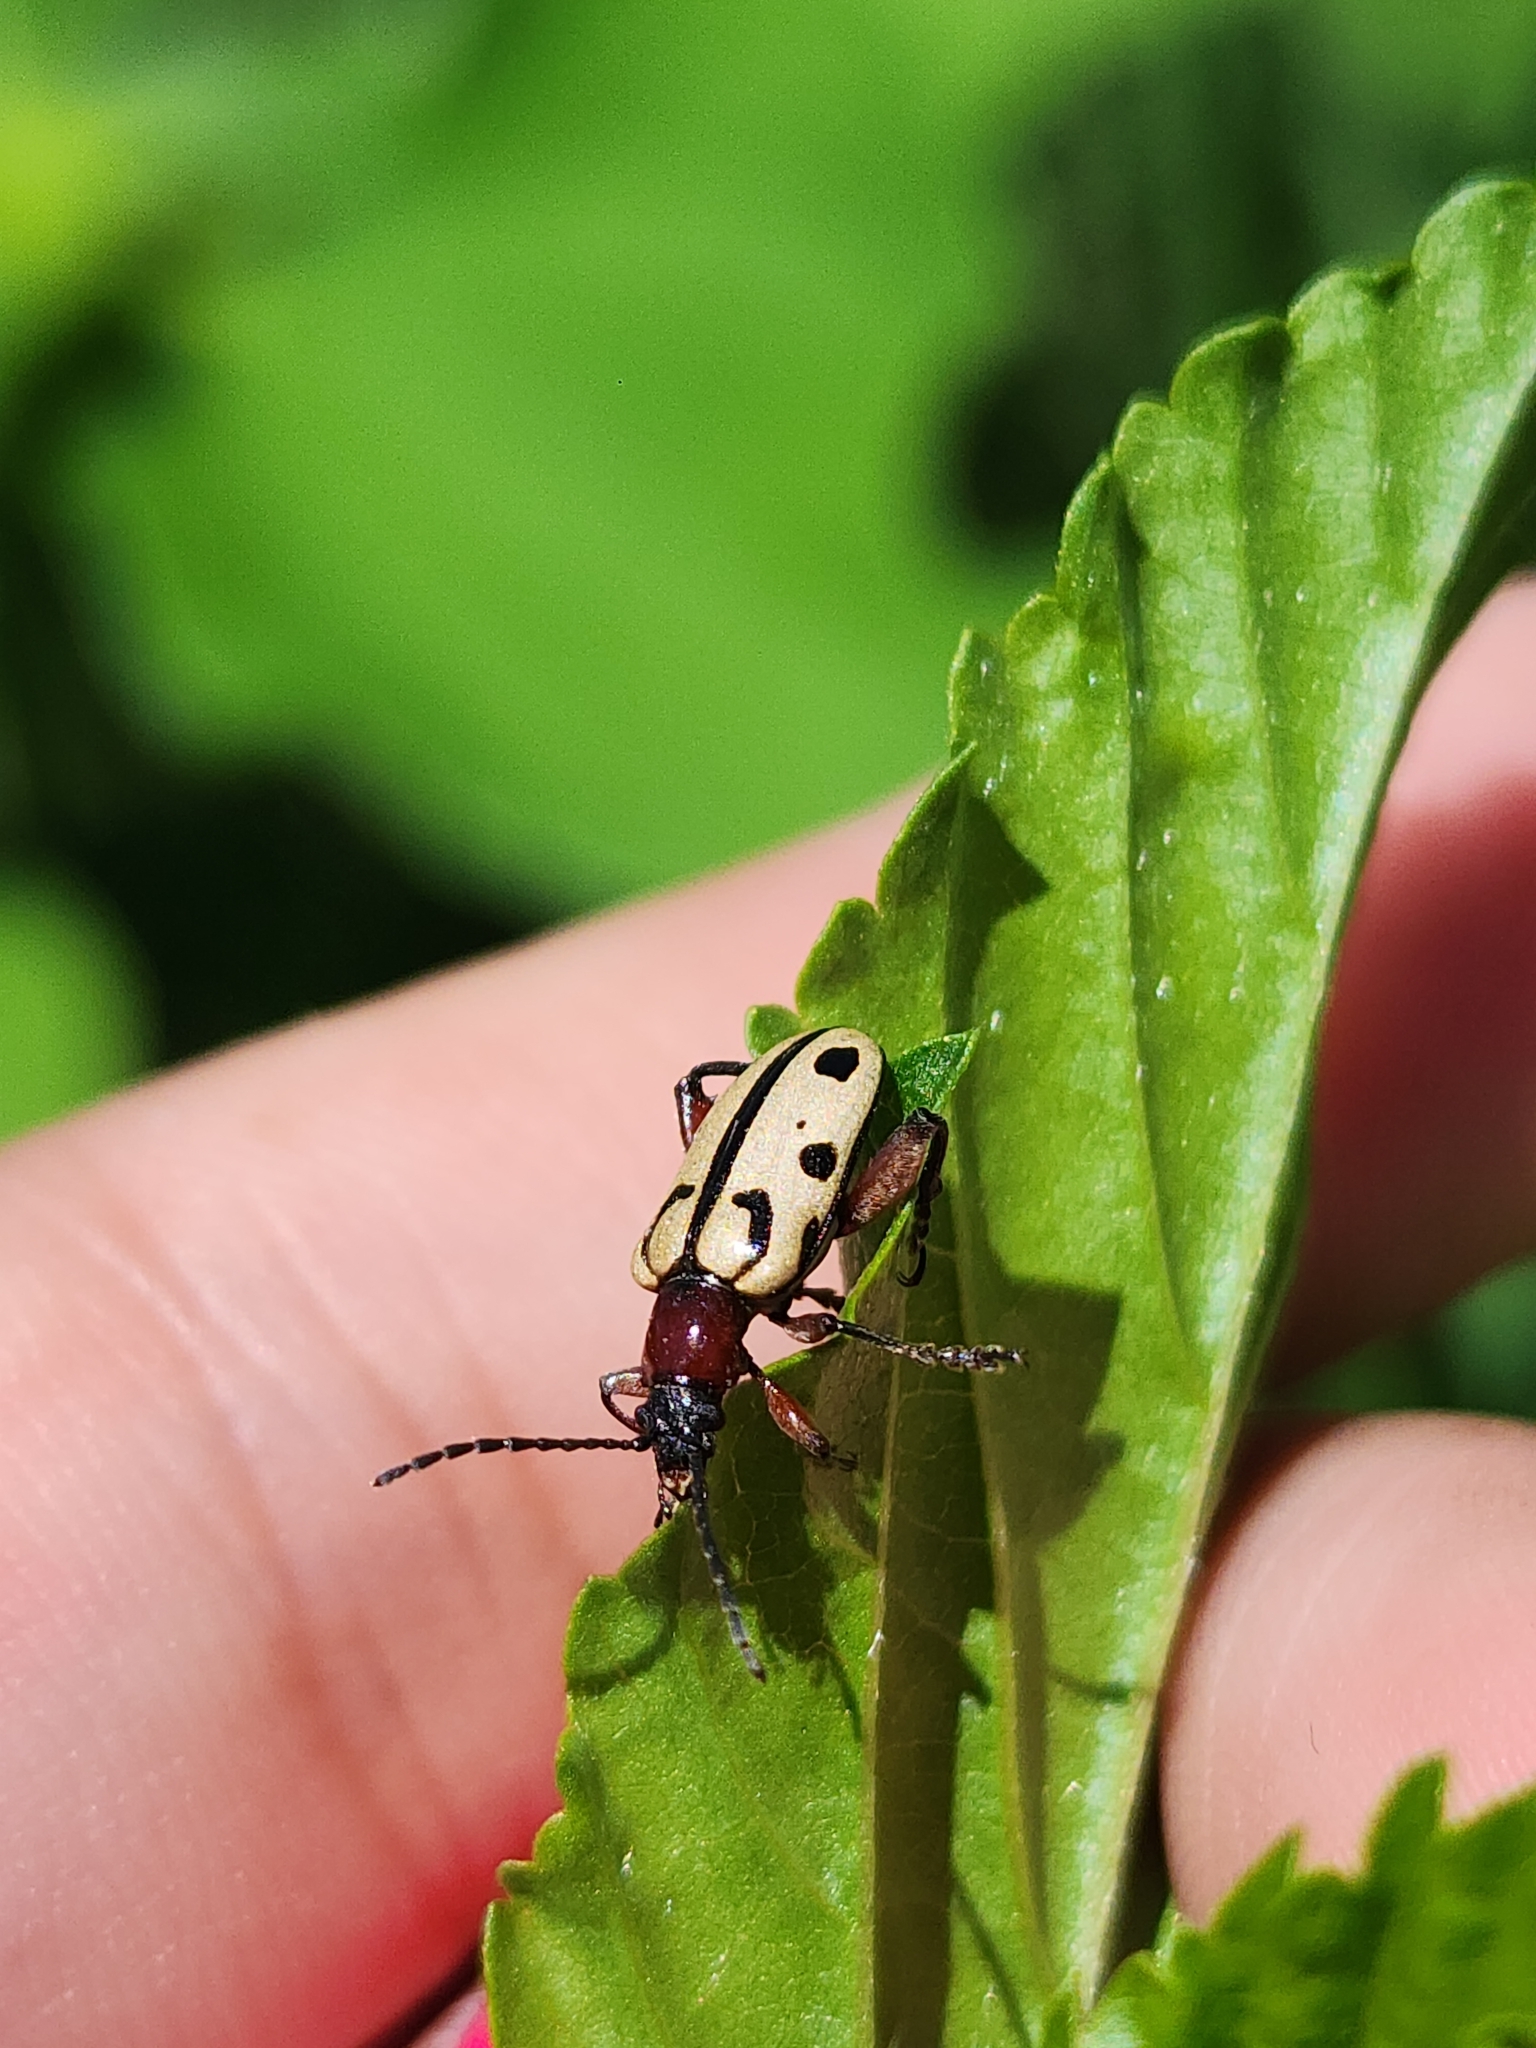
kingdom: Animalia
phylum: Arthropoda
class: Insecta
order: Coleoptera
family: Chrysomelidae
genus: Atalasis
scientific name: Atalasis
